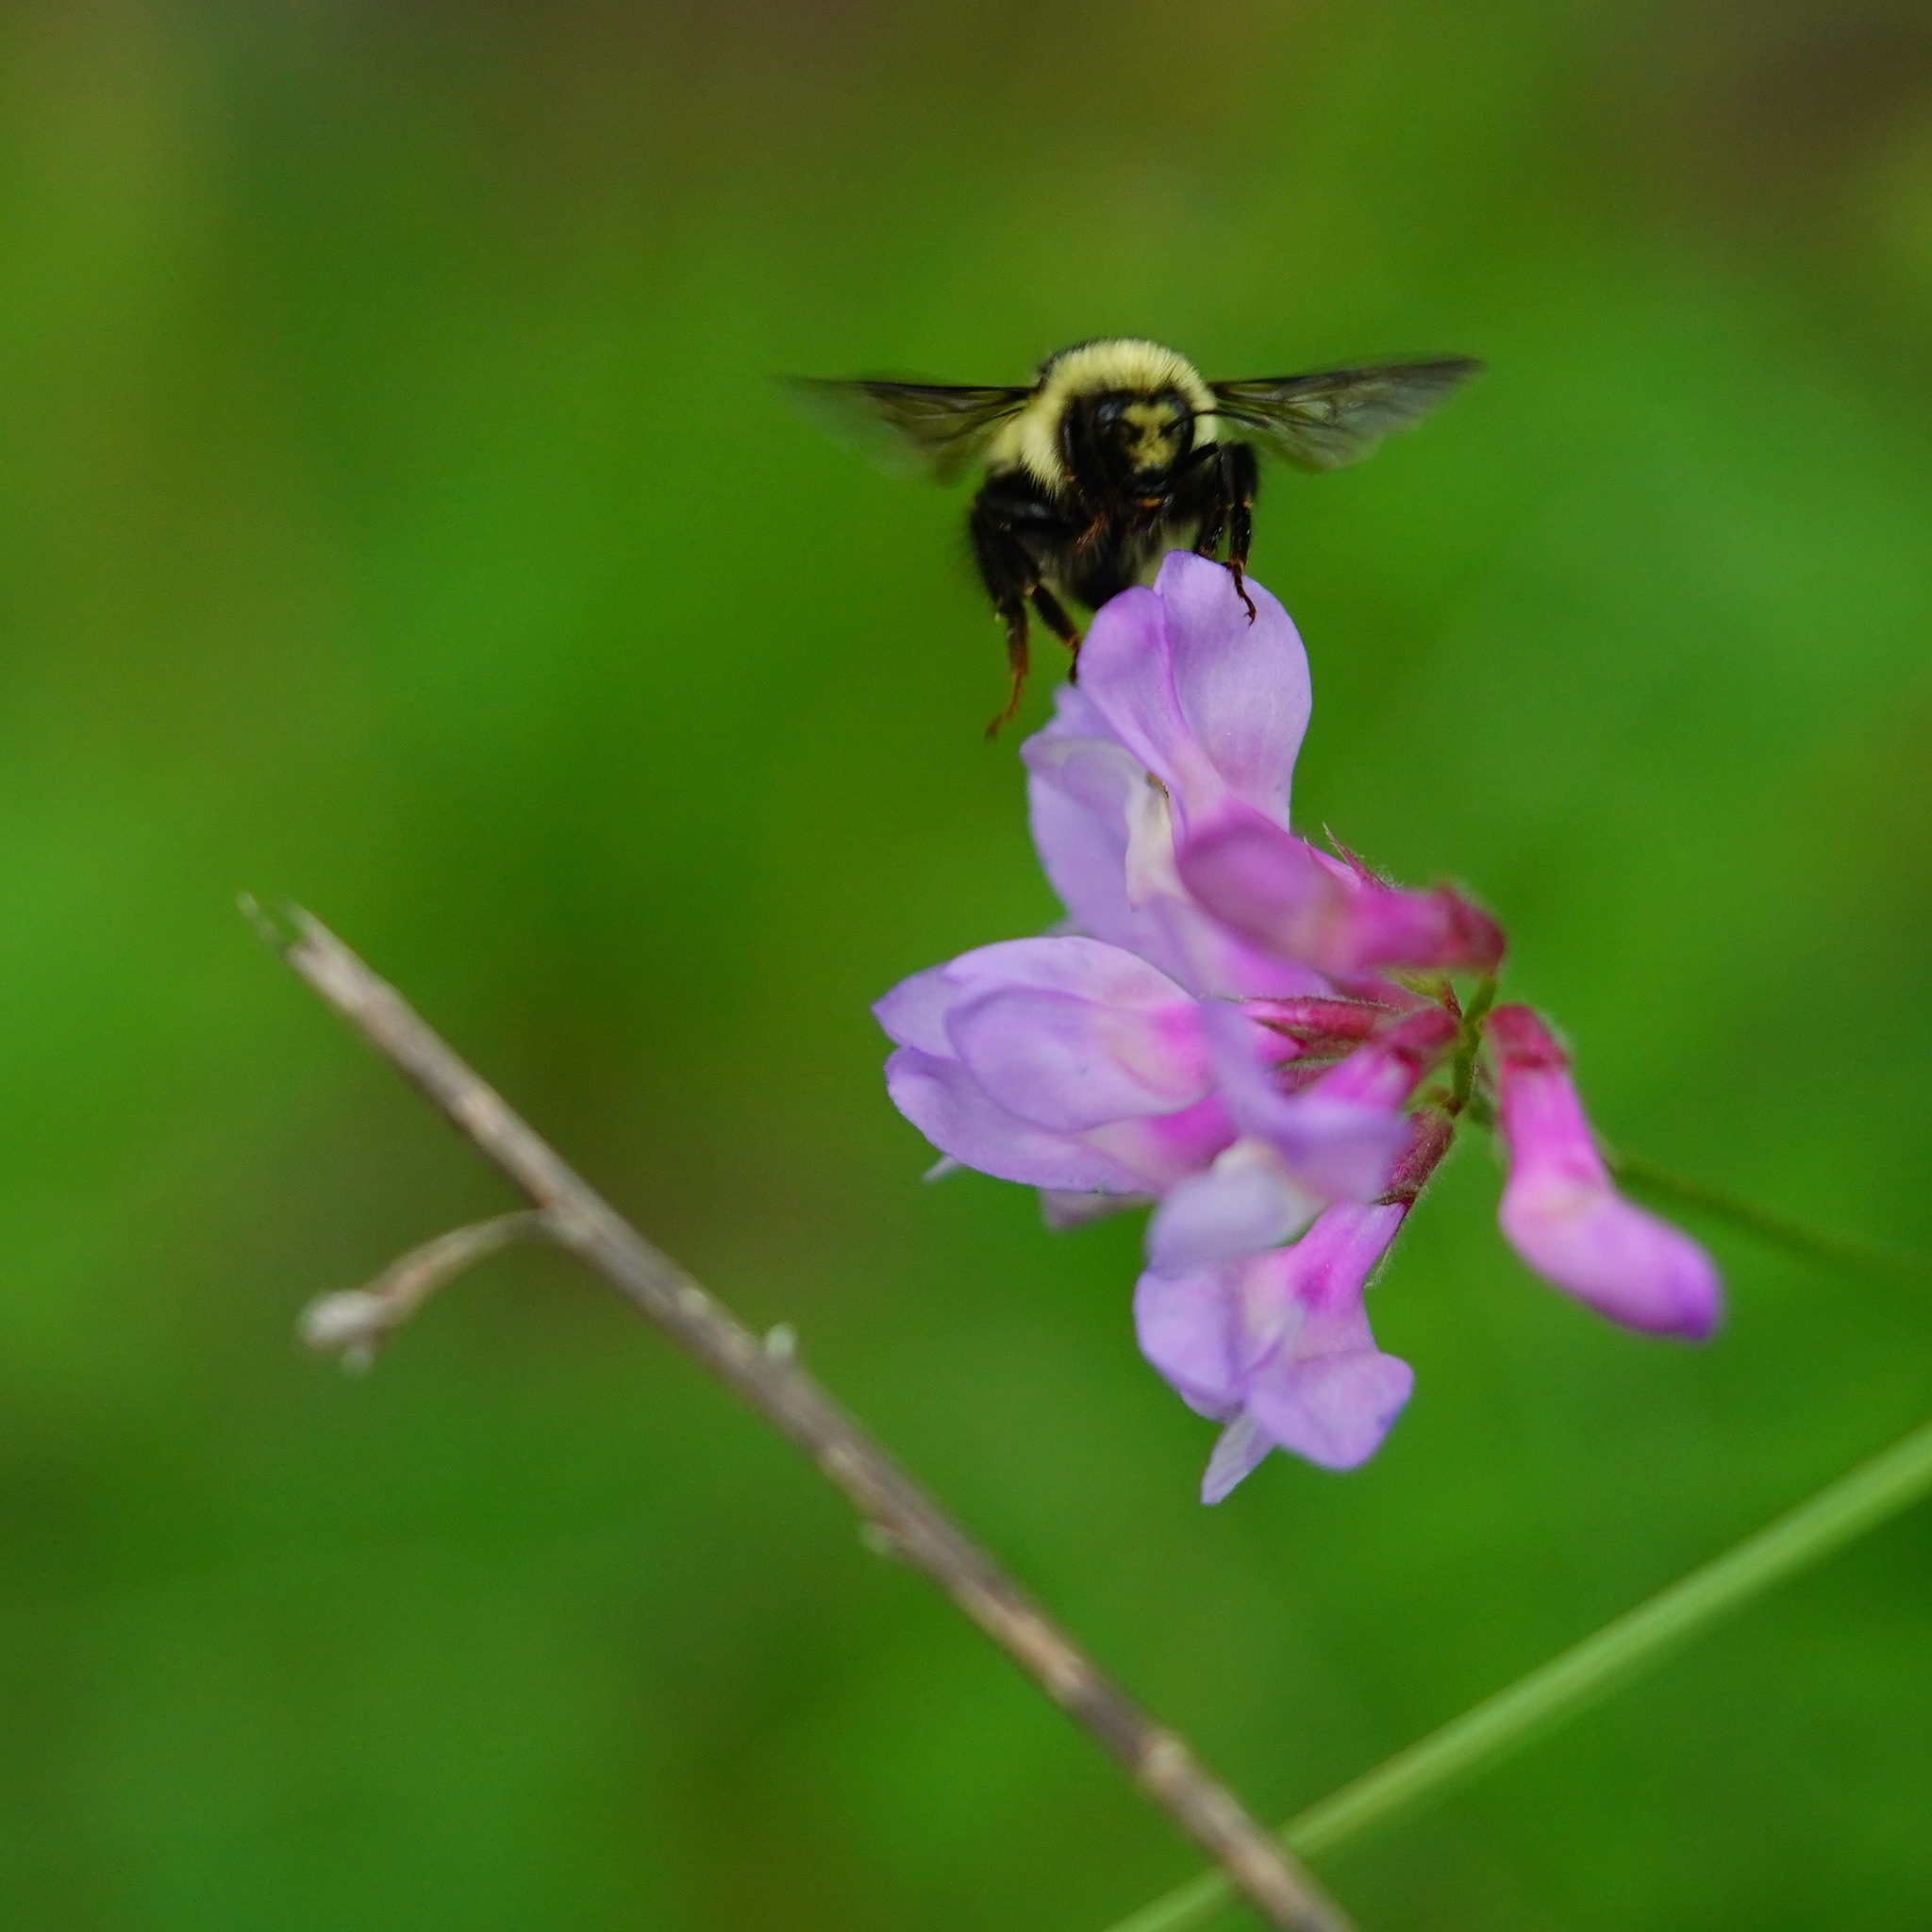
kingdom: Animalia
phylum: Arthropoda
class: Insecta
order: Hymenoptera
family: Apidae
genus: Bombus
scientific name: Bombus melanopygus
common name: Black tail bumble bee
